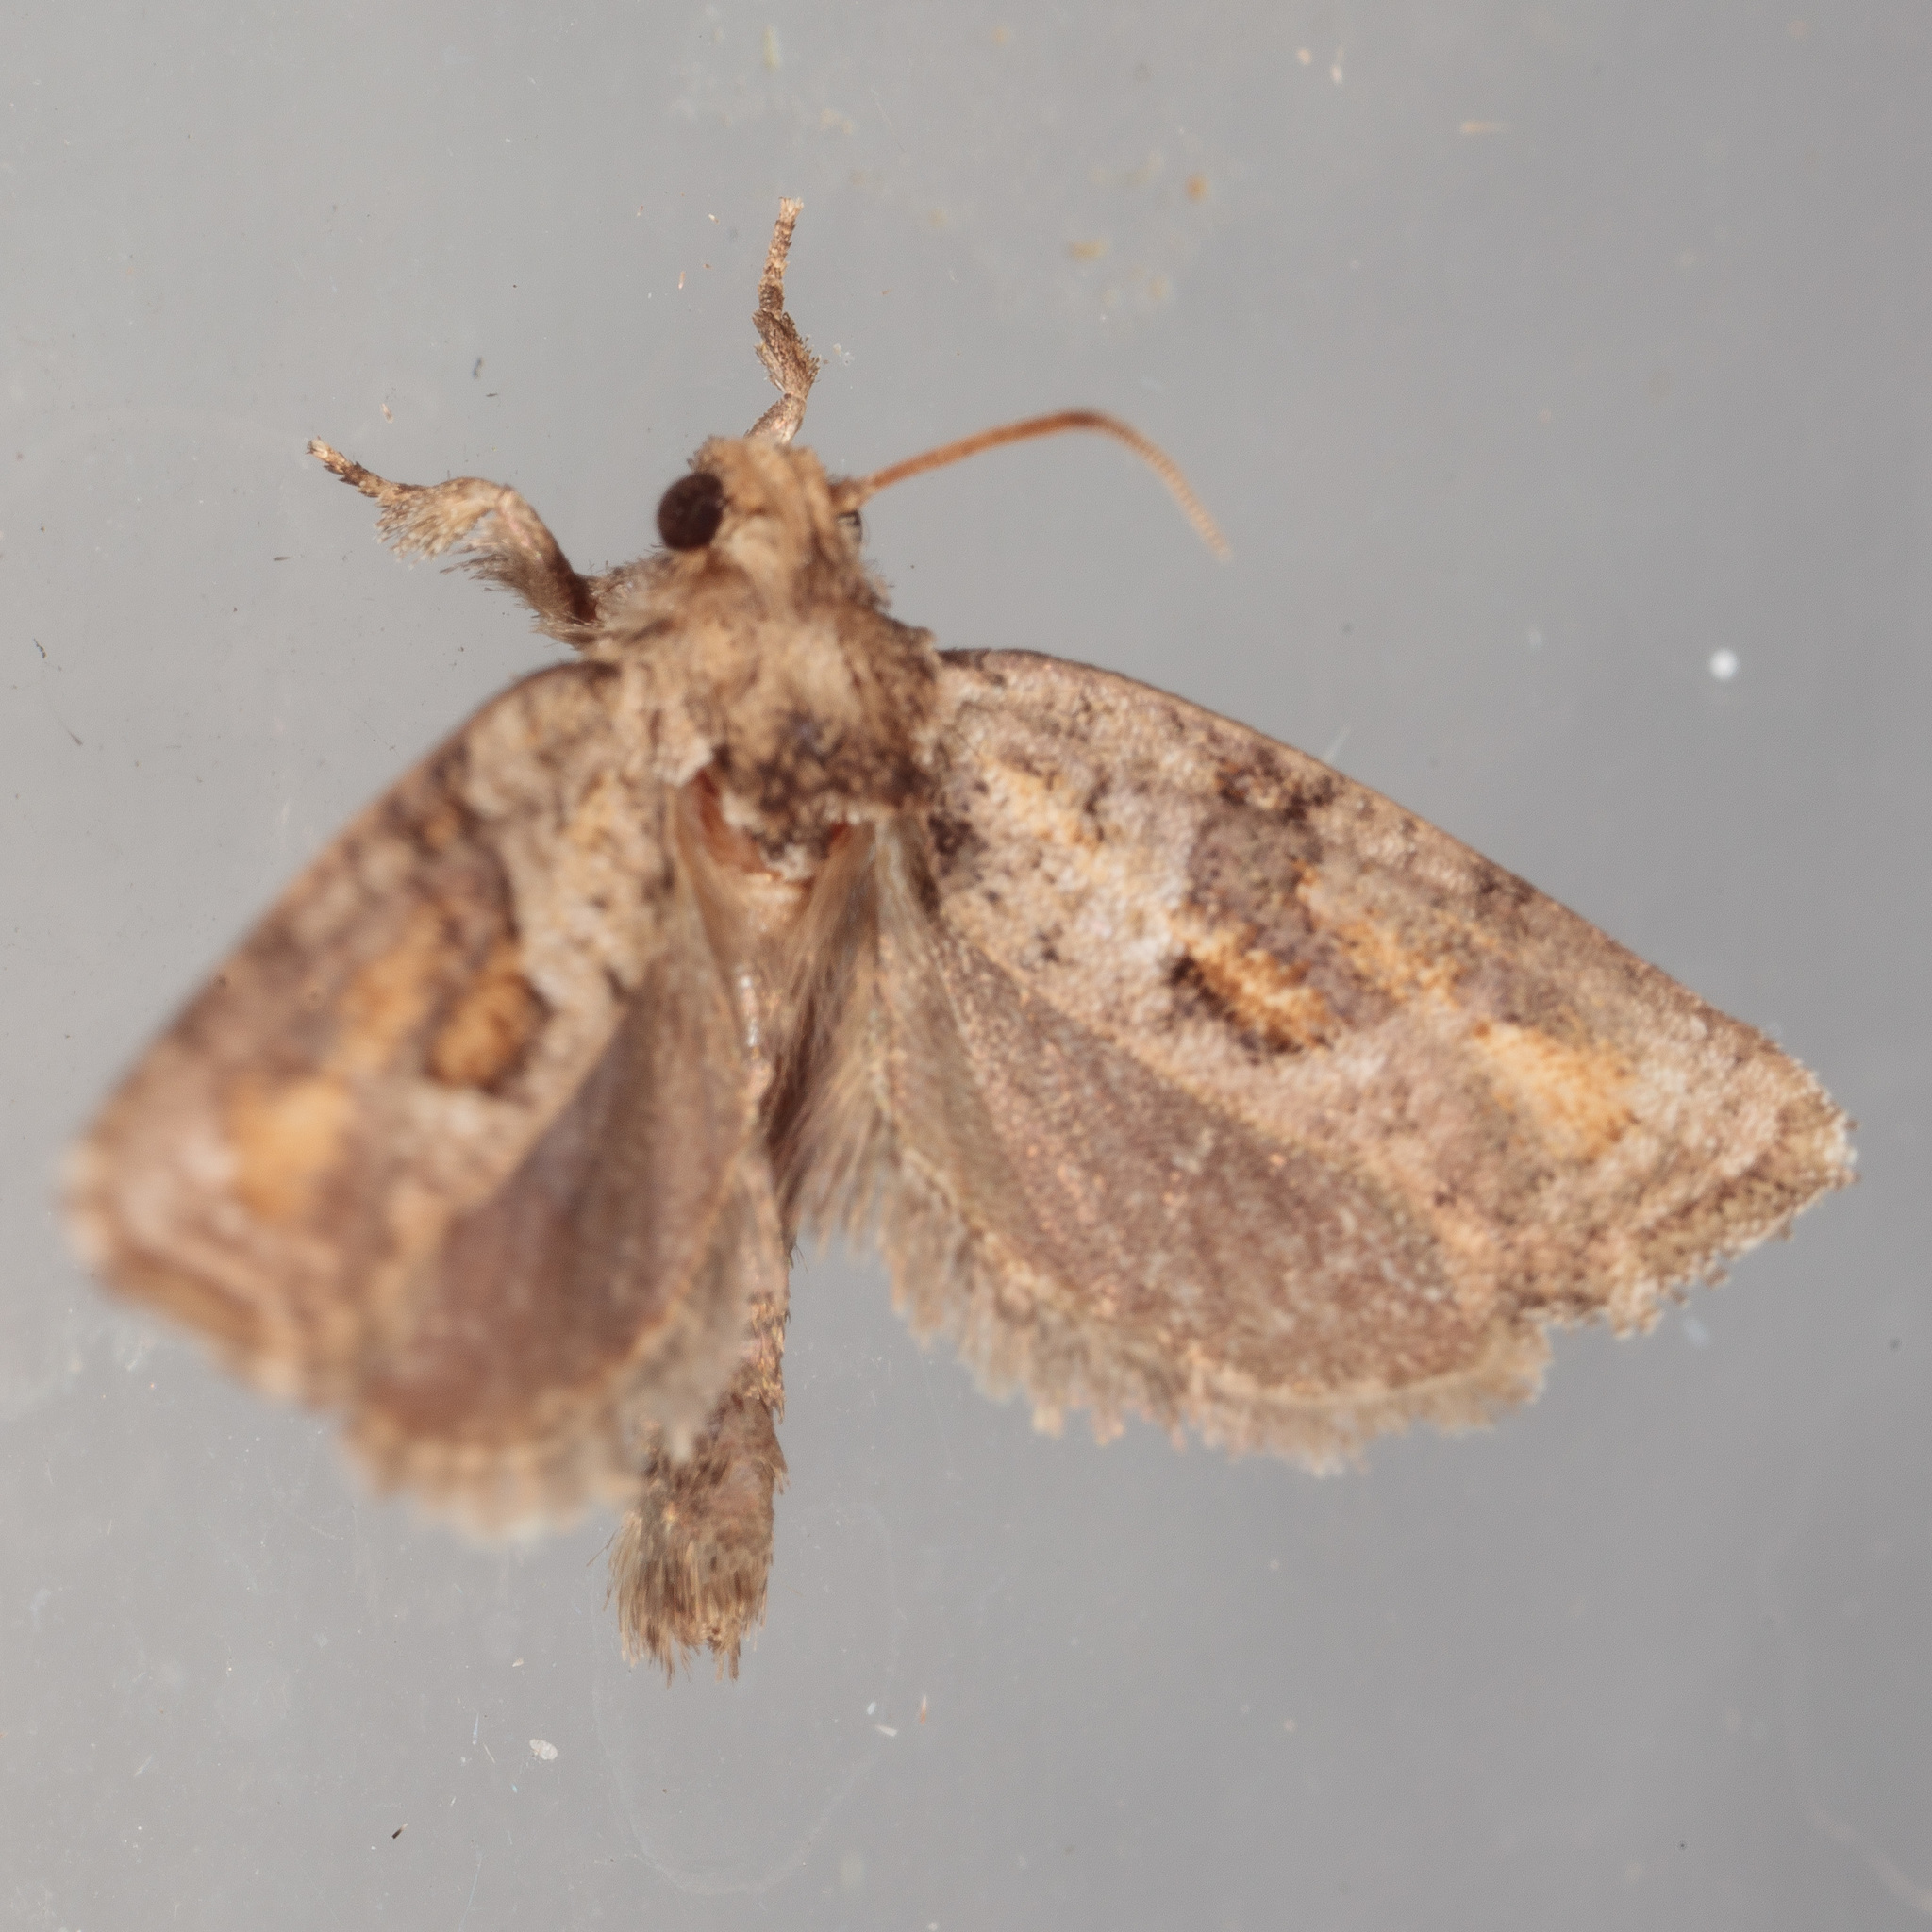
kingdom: Animalia
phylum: Arthropoda
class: Insecta
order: Lepidoptera
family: Tineidae
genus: Acrolophus
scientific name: Acrolophus piger
